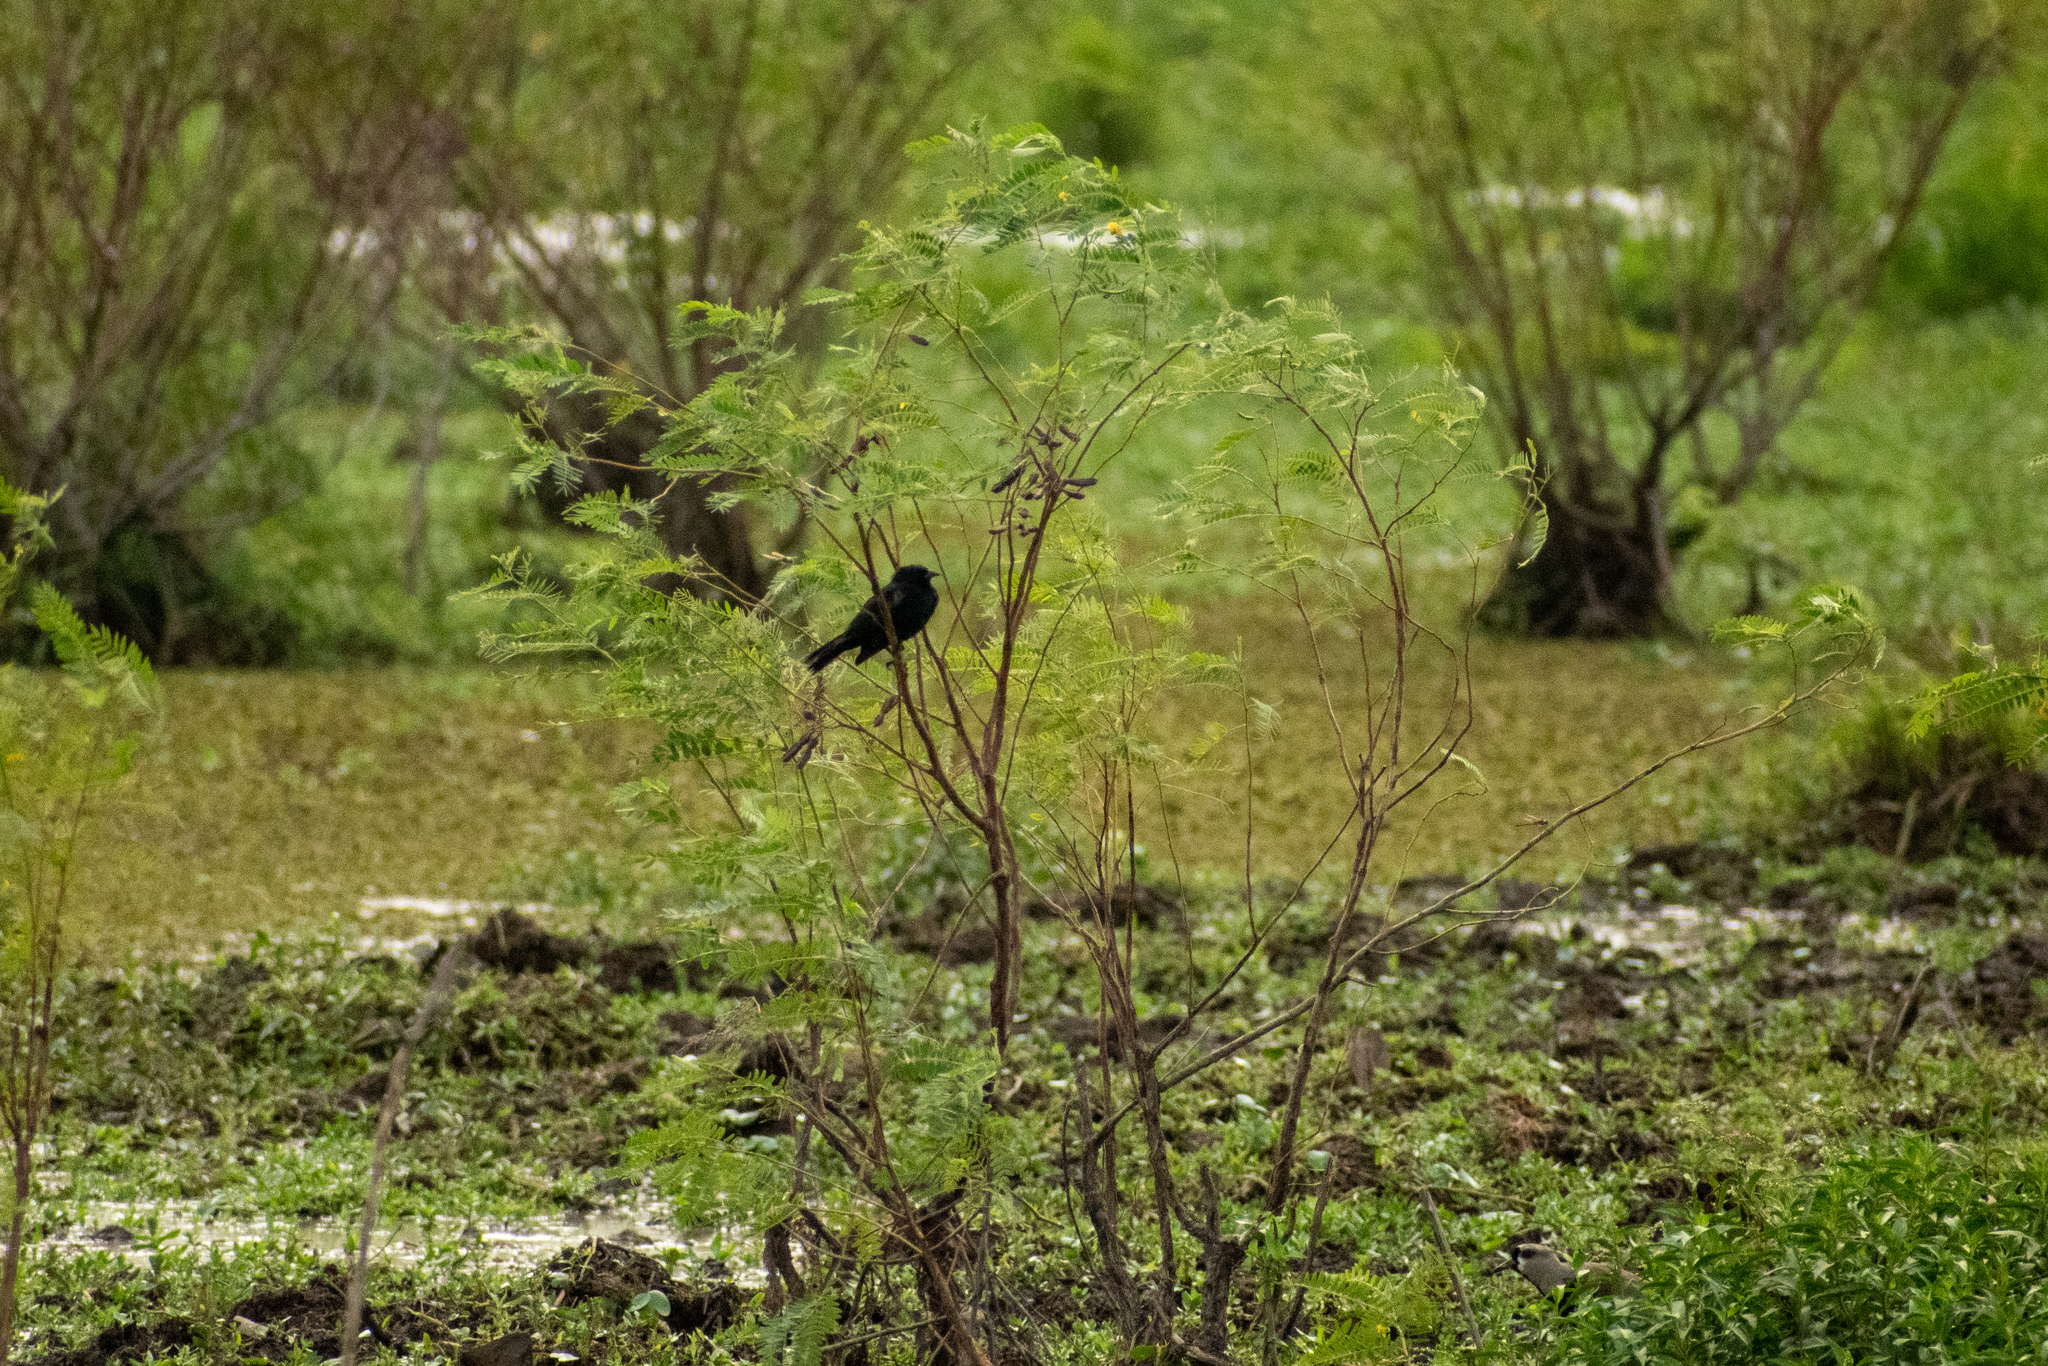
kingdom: Animalia
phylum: Chordata
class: Aves
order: Passeriformes
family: Icteridae
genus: Gnorimopsar
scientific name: Gnorimopsar chopi
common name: Chopi blackbird
